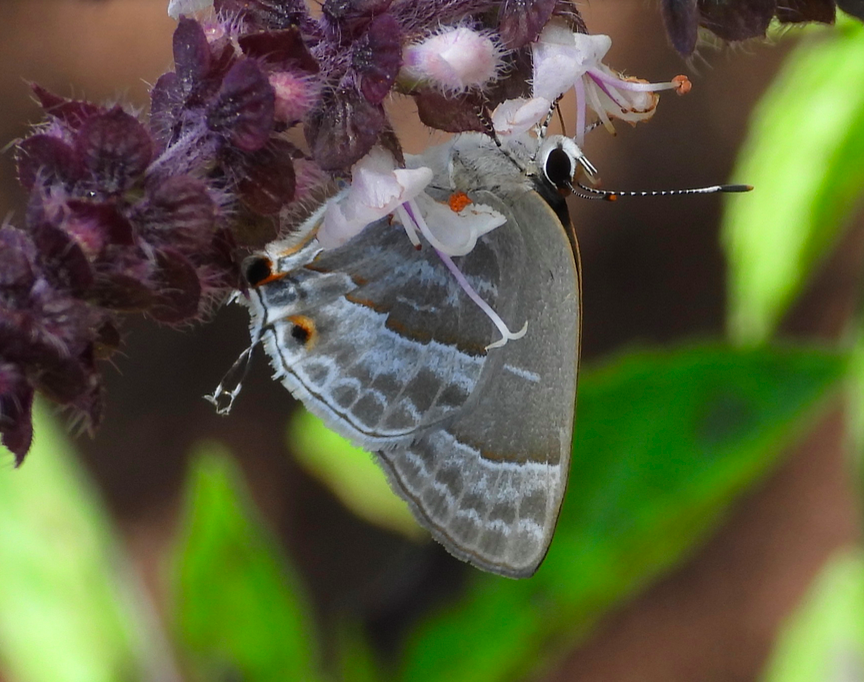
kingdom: Animalia
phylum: Arthropoda
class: Insecta
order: Lepidoptera
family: Lycaenidae
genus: Thecla
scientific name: Thecla yojoa
